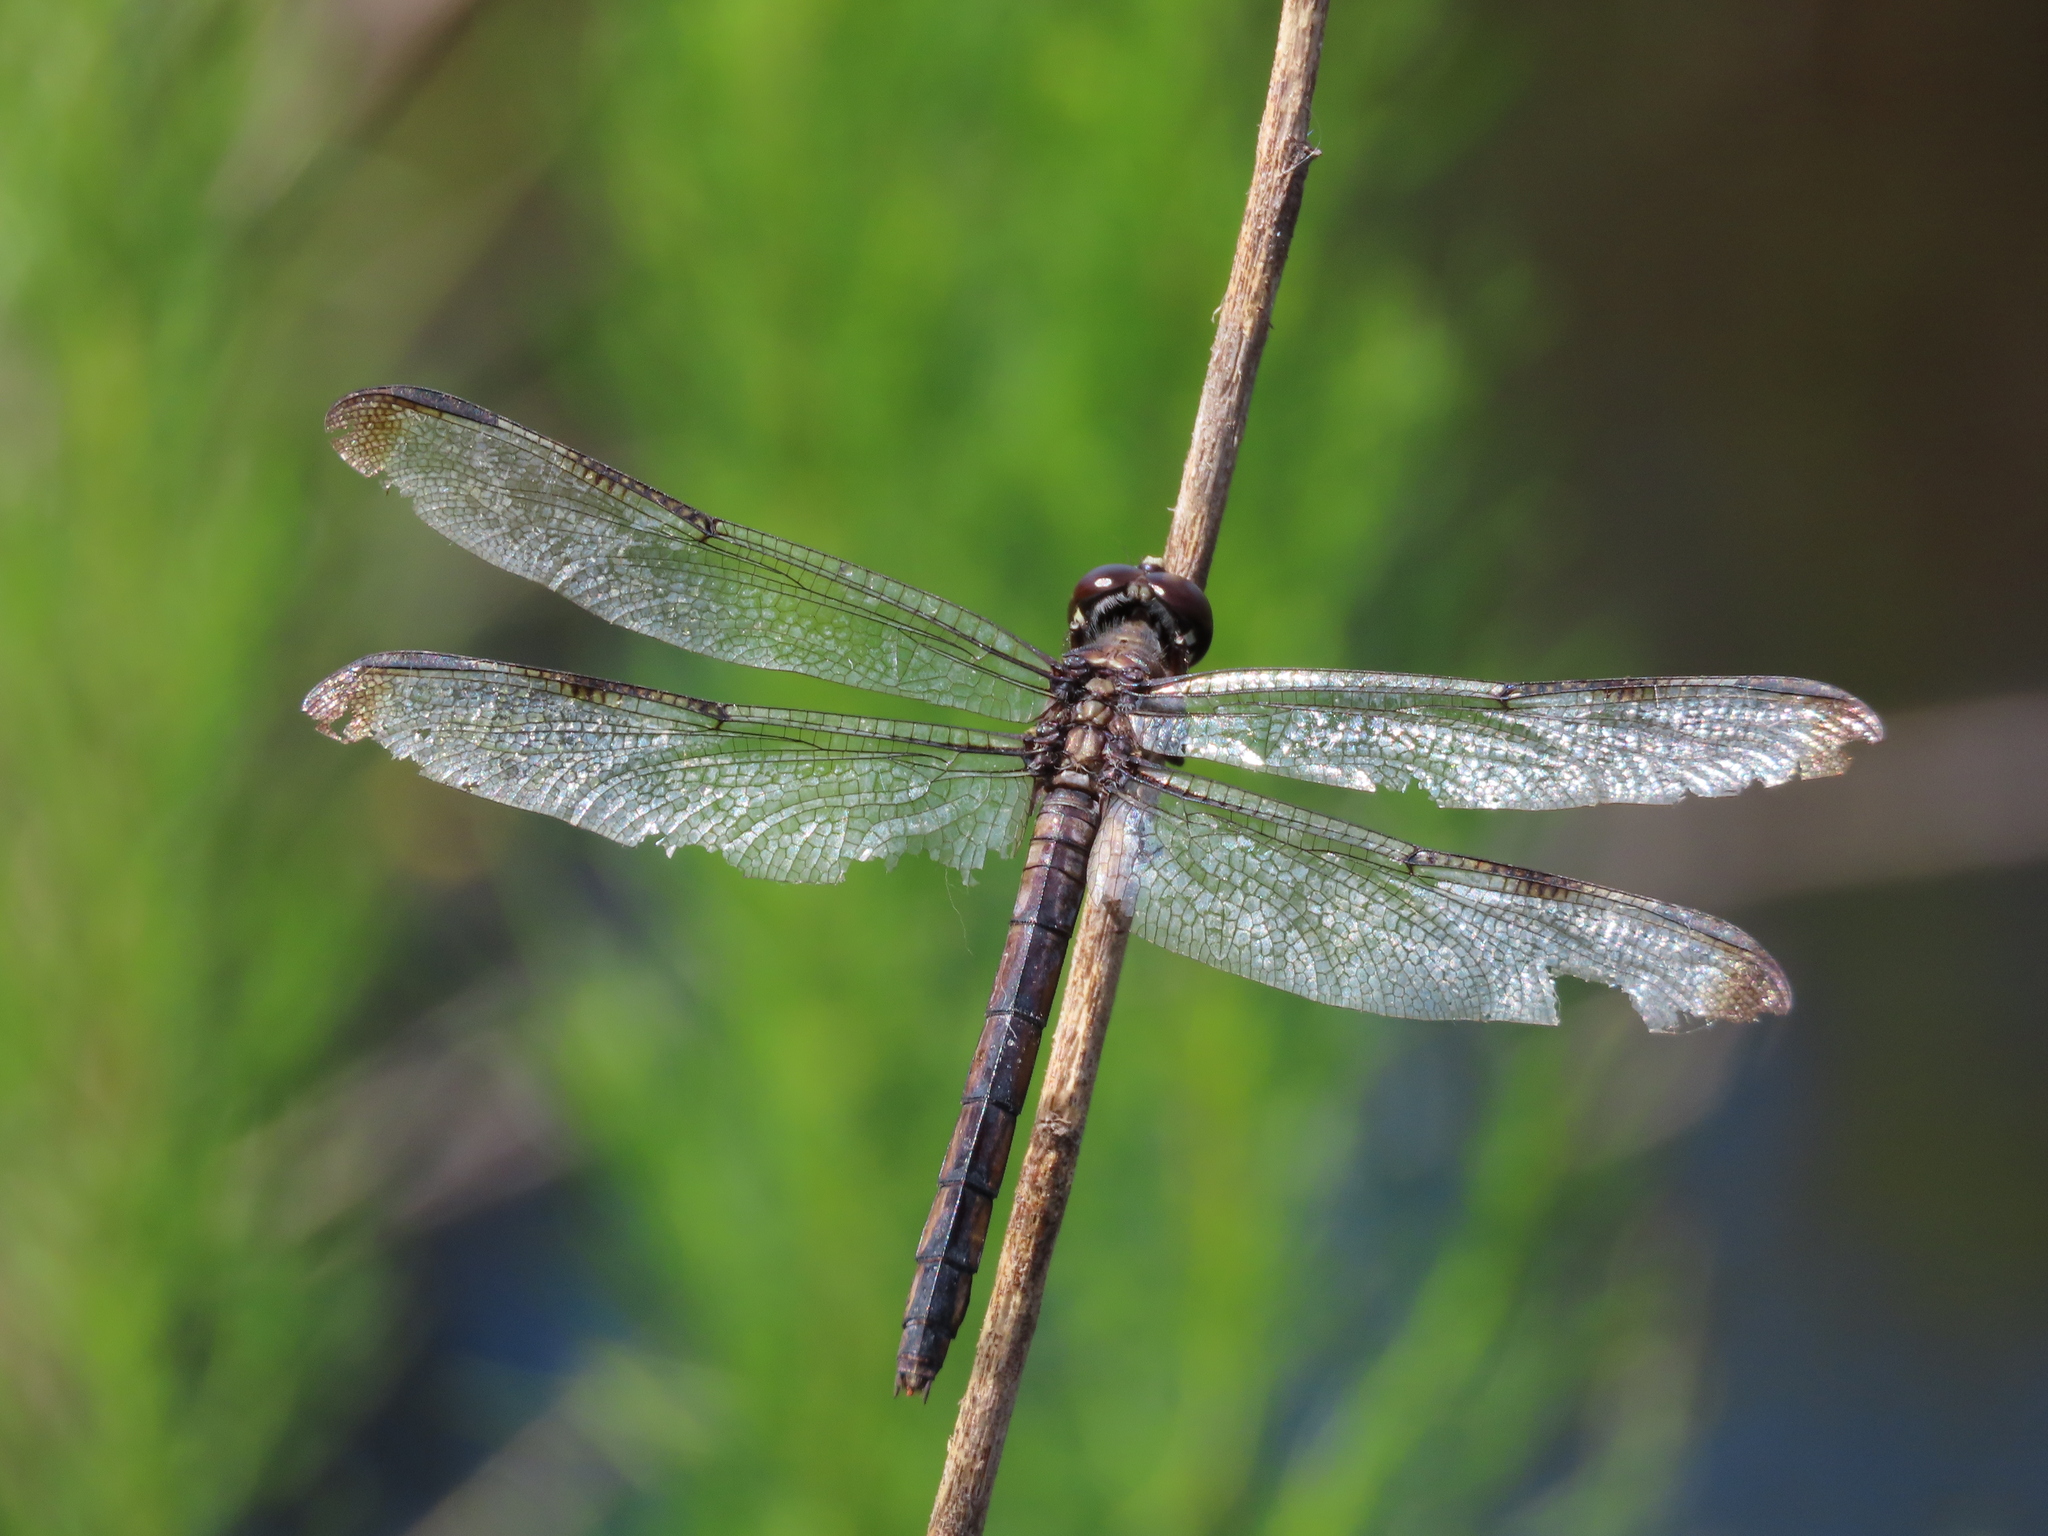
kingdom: Animalia
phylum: Arthropoda
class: Insecta
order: Odonata
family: Libellulidae
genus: Libellula
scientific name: Libellula axilena
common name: Bar-winged skimmer
